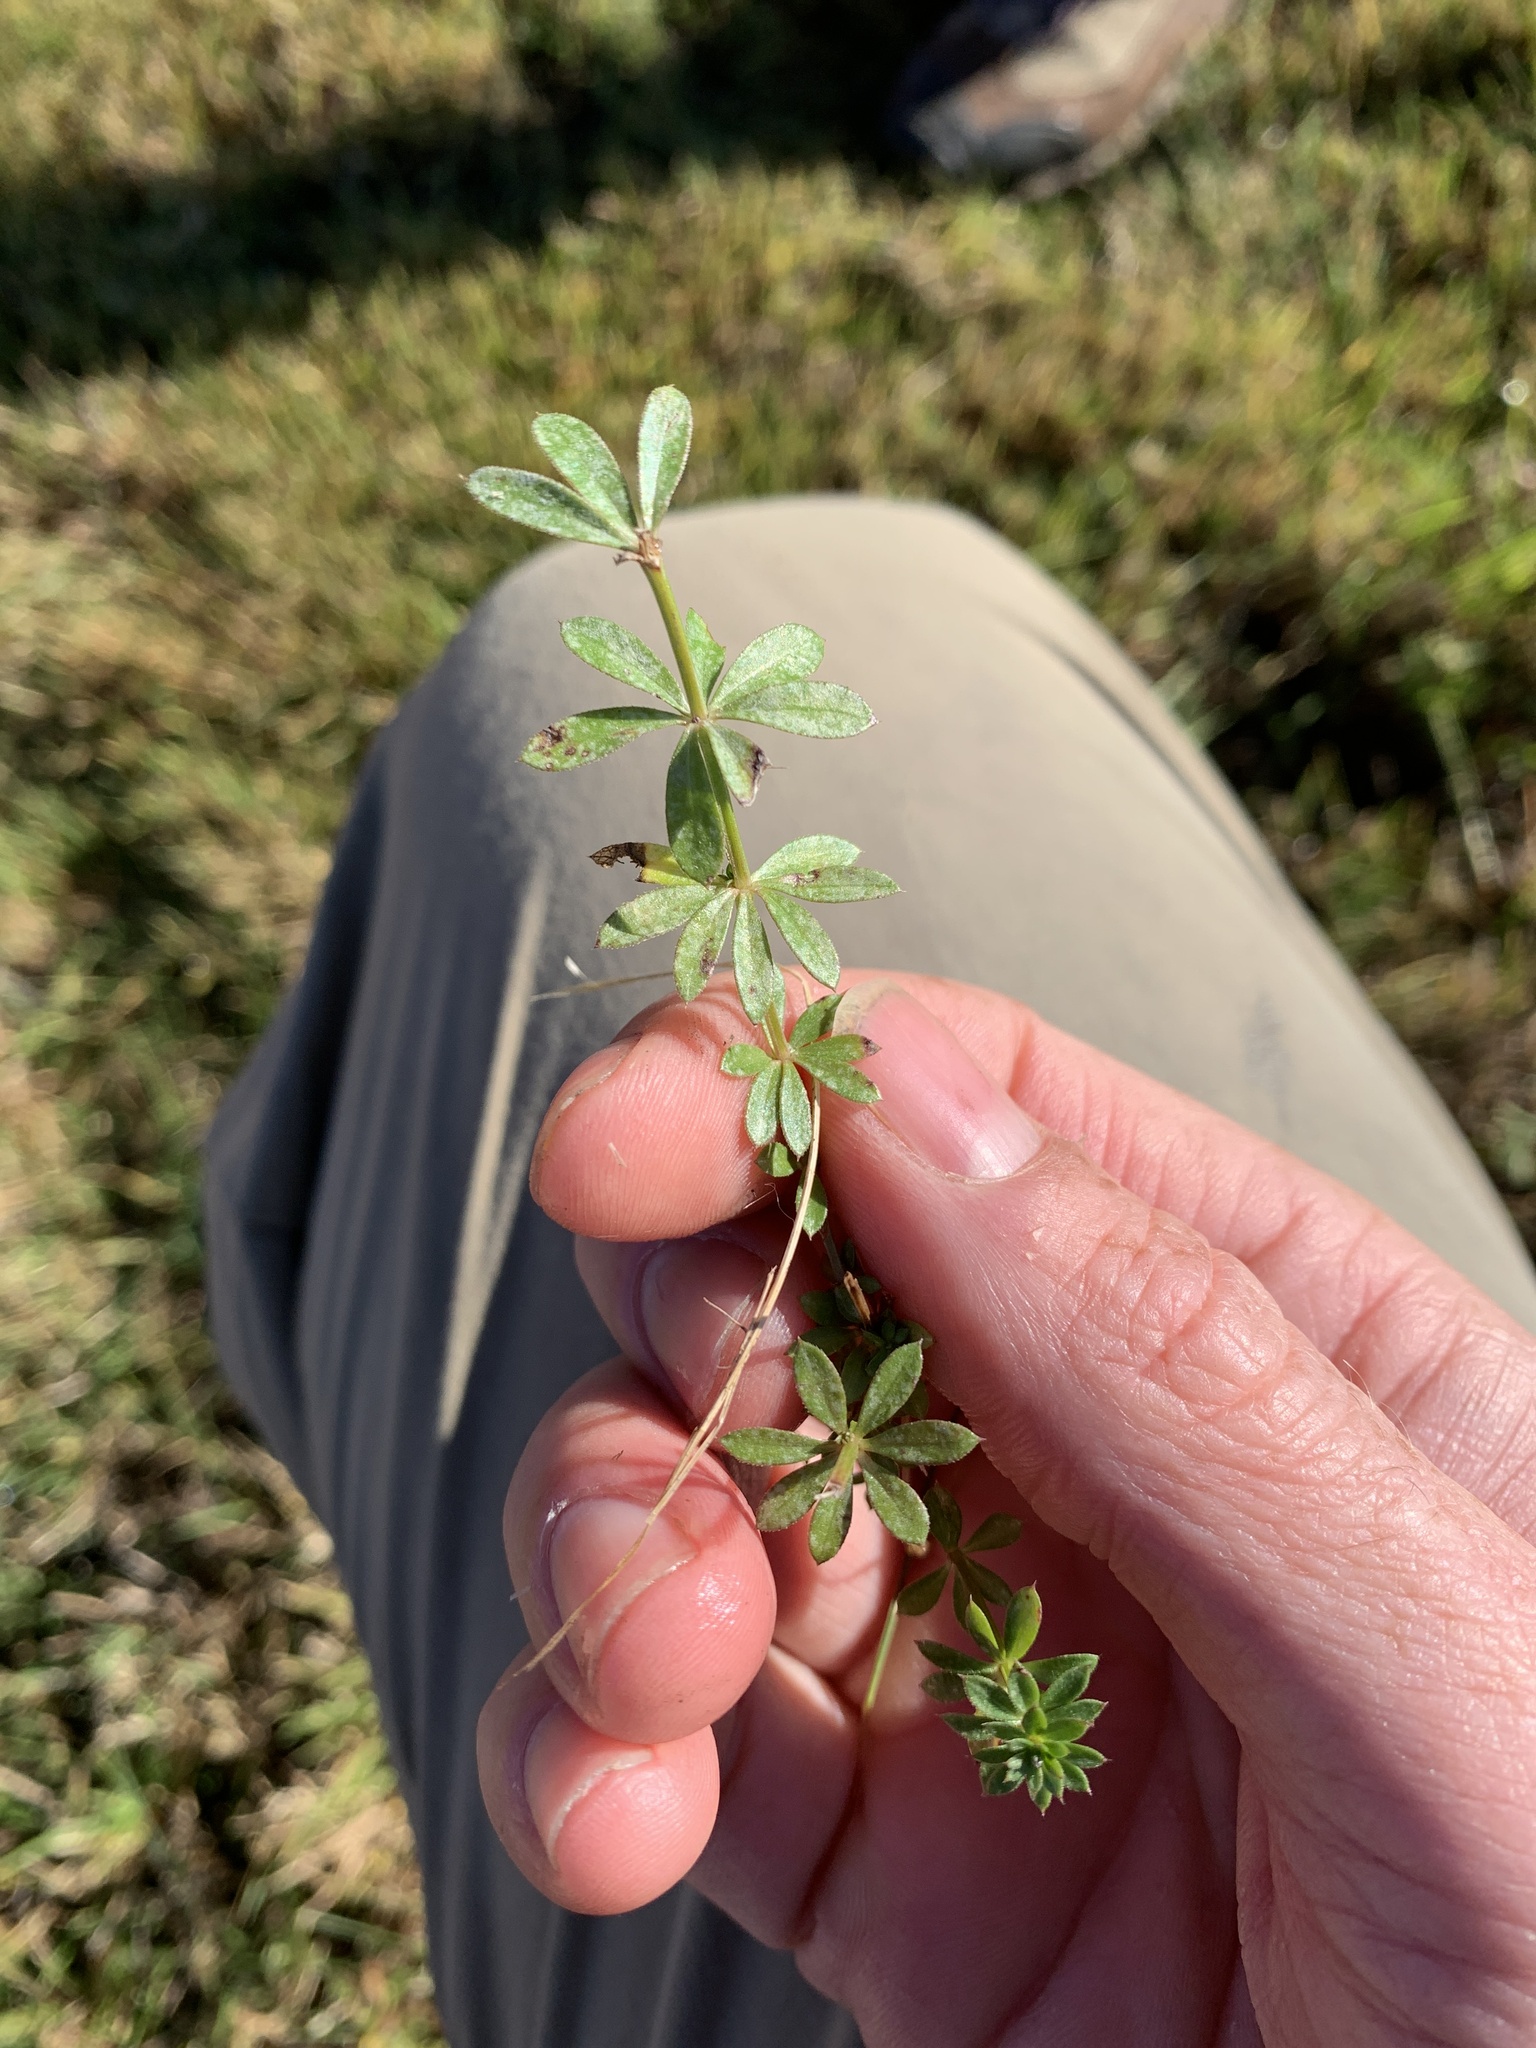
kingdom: Plantae
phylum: Tracheophyta
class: Magnoliopsida
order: Gentianales
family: Rubiaceae
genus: Galium
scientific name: Galium mollugo
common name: Hedge bedstraw
